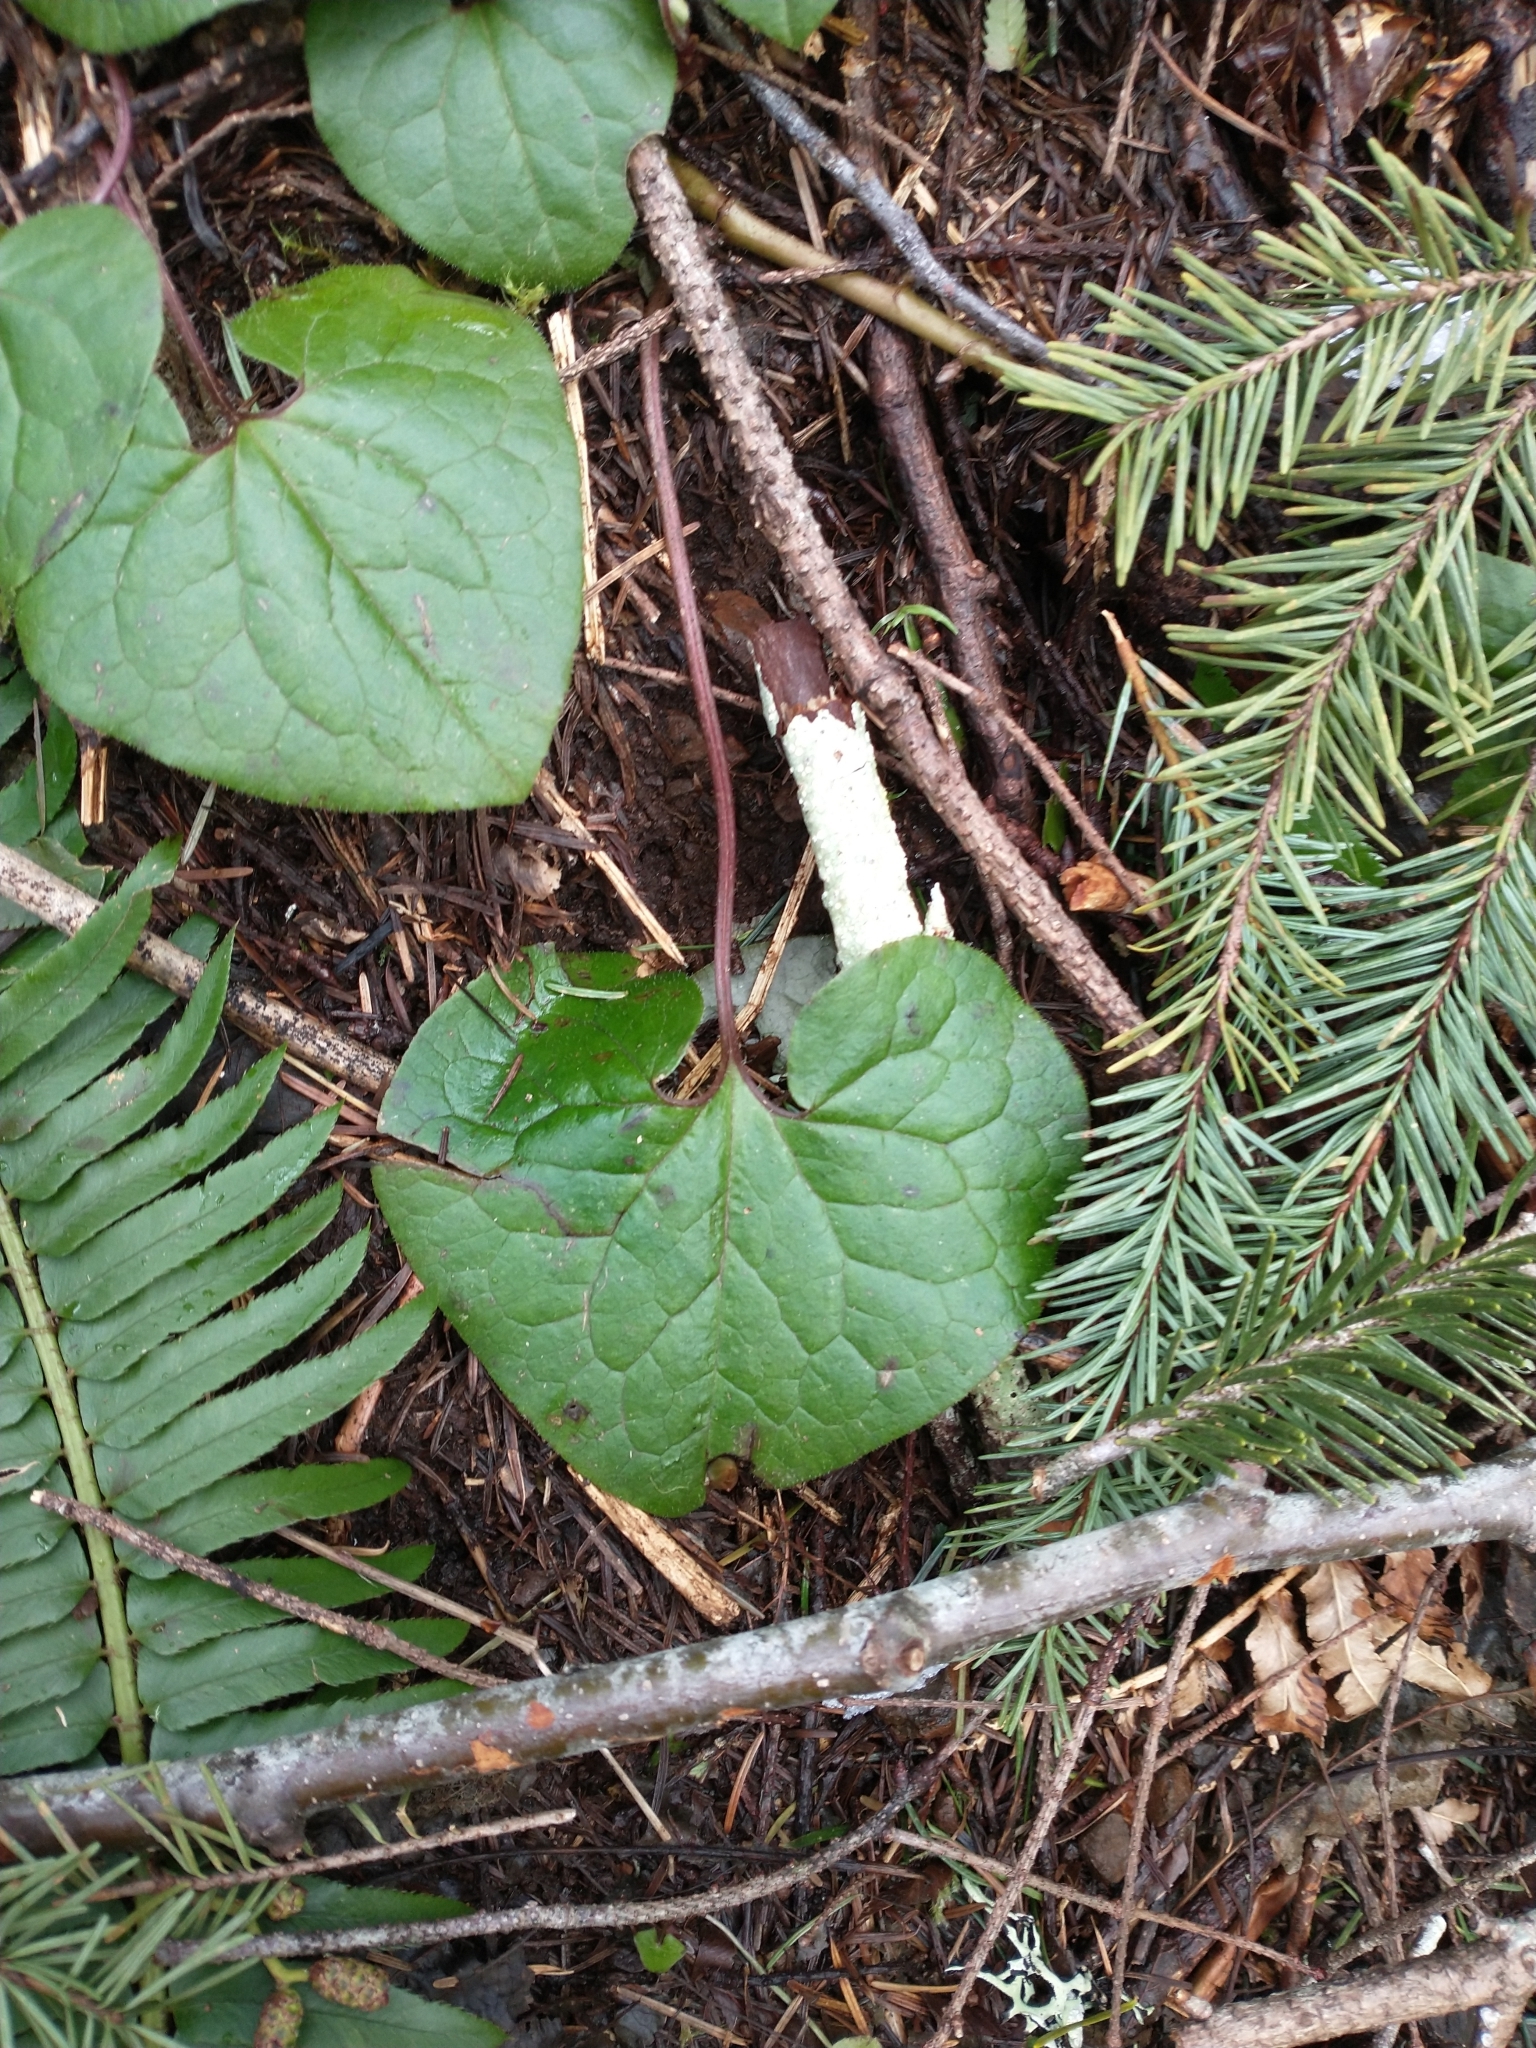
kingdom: Plantae
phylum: Tracheophyta
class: Magnoliopsida
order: Piperales
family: Aristolochiaceae
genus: Asarum
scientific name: Asarum caudatum
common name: Wild ginger
